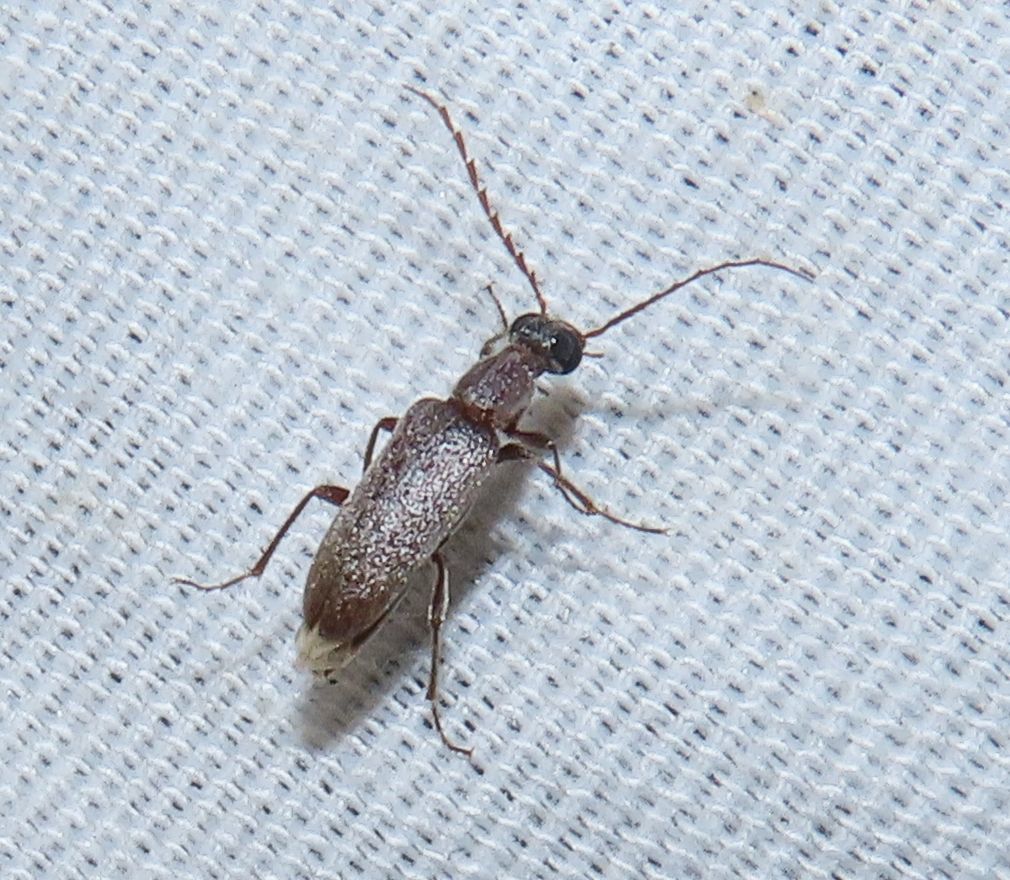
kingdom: Animalia
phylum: Arthropoda
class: Insecta
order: Coleoptera
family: Anthicidae
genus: Leptoremus
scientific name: Leptoremus argenteus
